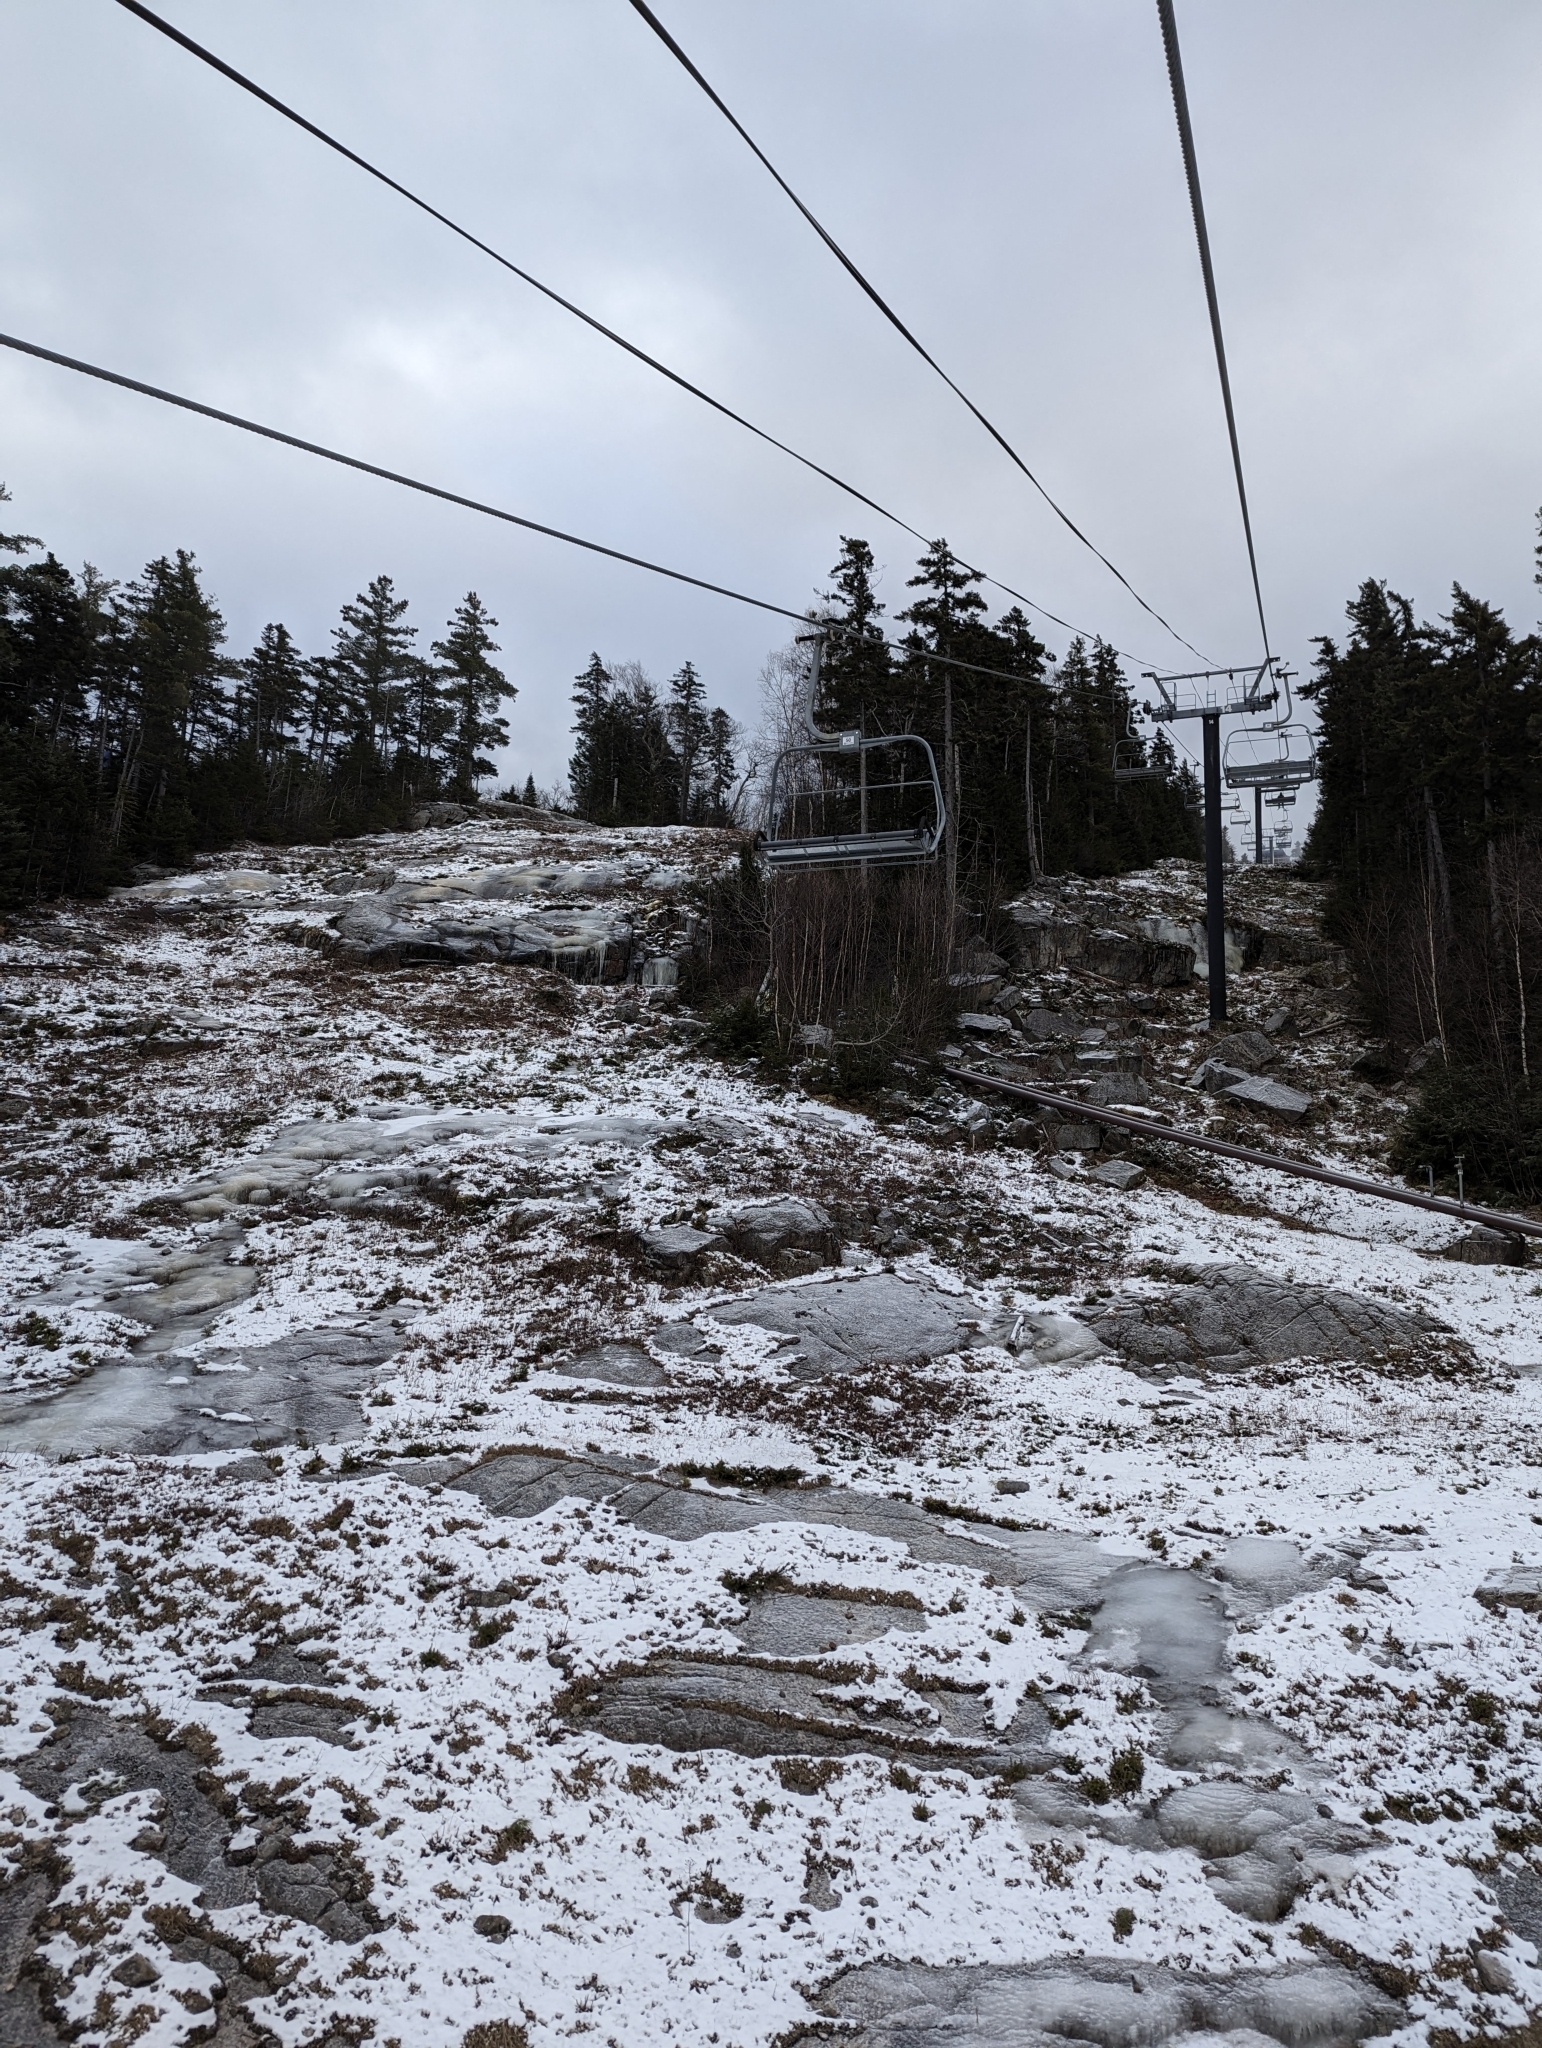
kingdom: Plantae
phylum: Tracheophyta
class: Pinopsida
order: Pinales
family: Pinaceae
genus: Pinus
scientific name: Pinus strobus
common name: Weymouth pine
